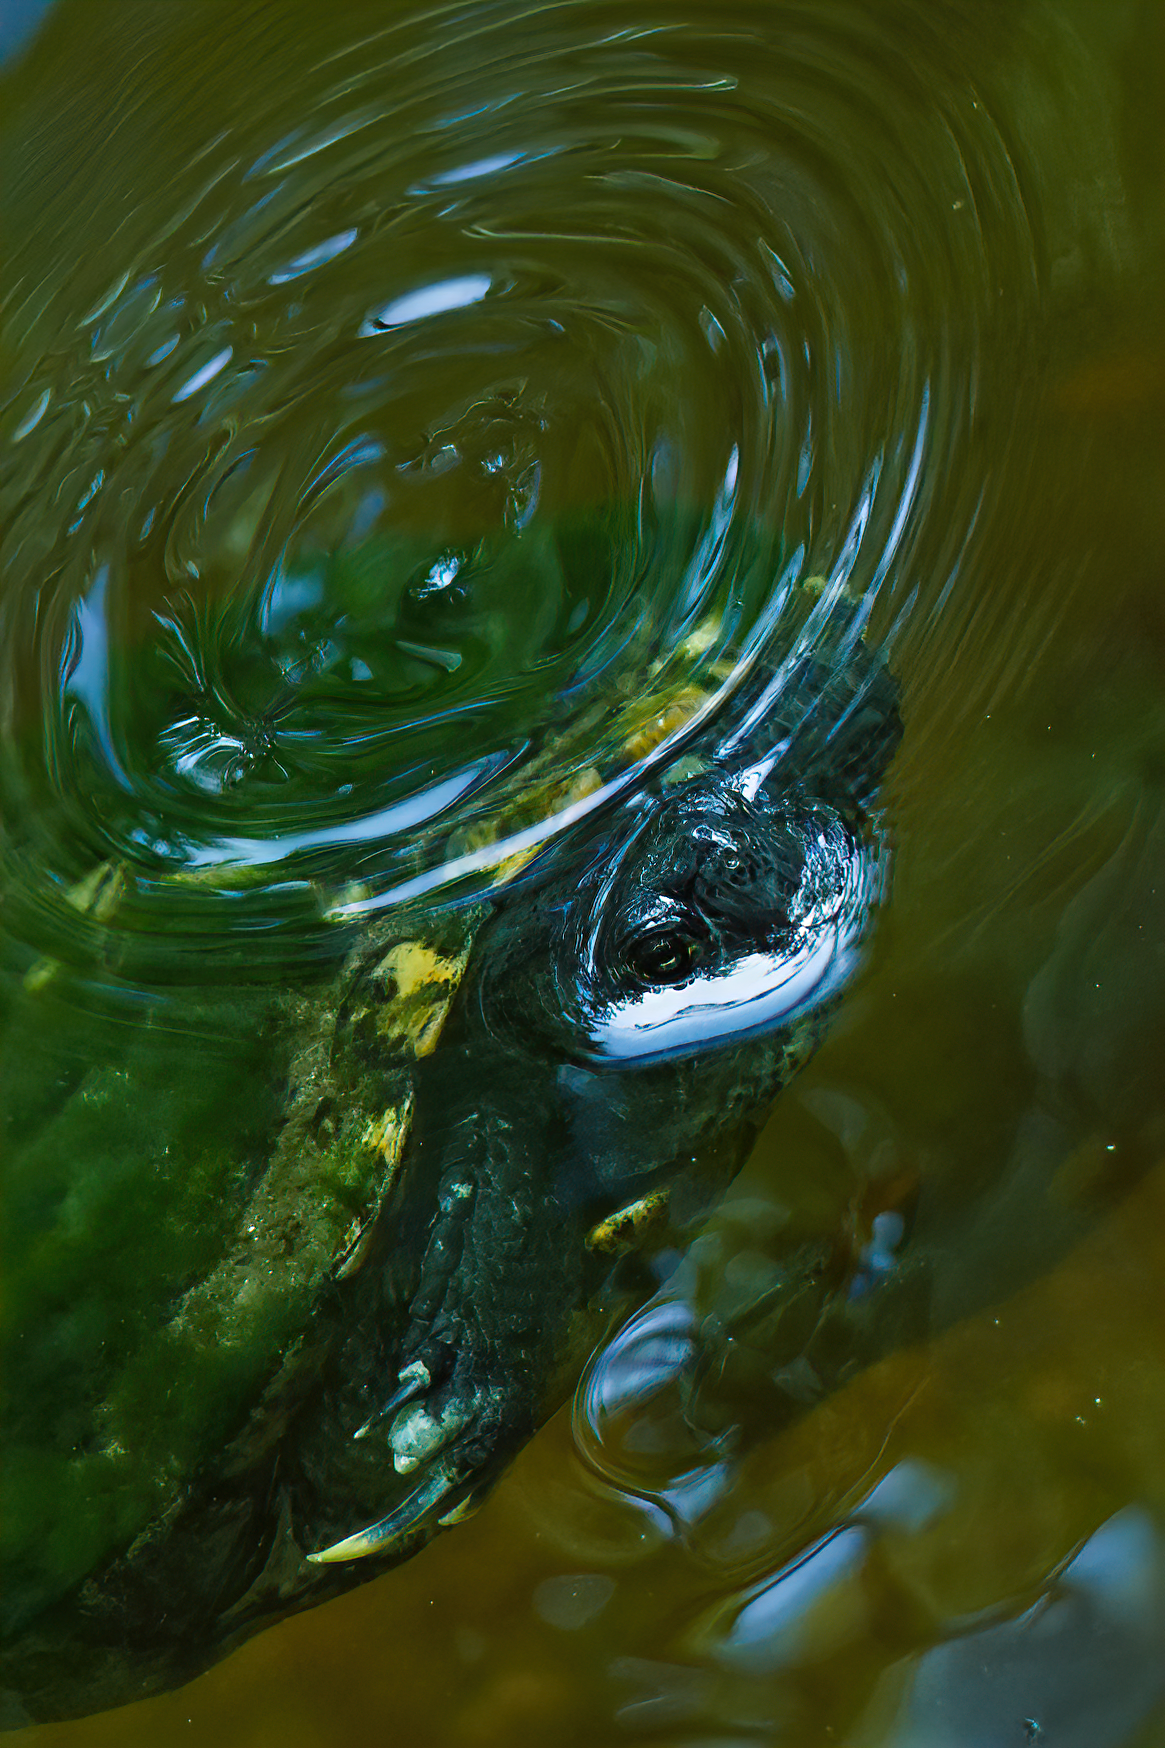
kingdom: Animalia
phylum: Chordata
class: Testudines
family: Emydidae
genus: Trachemys
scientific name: Trachemys scripta
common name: Slider
